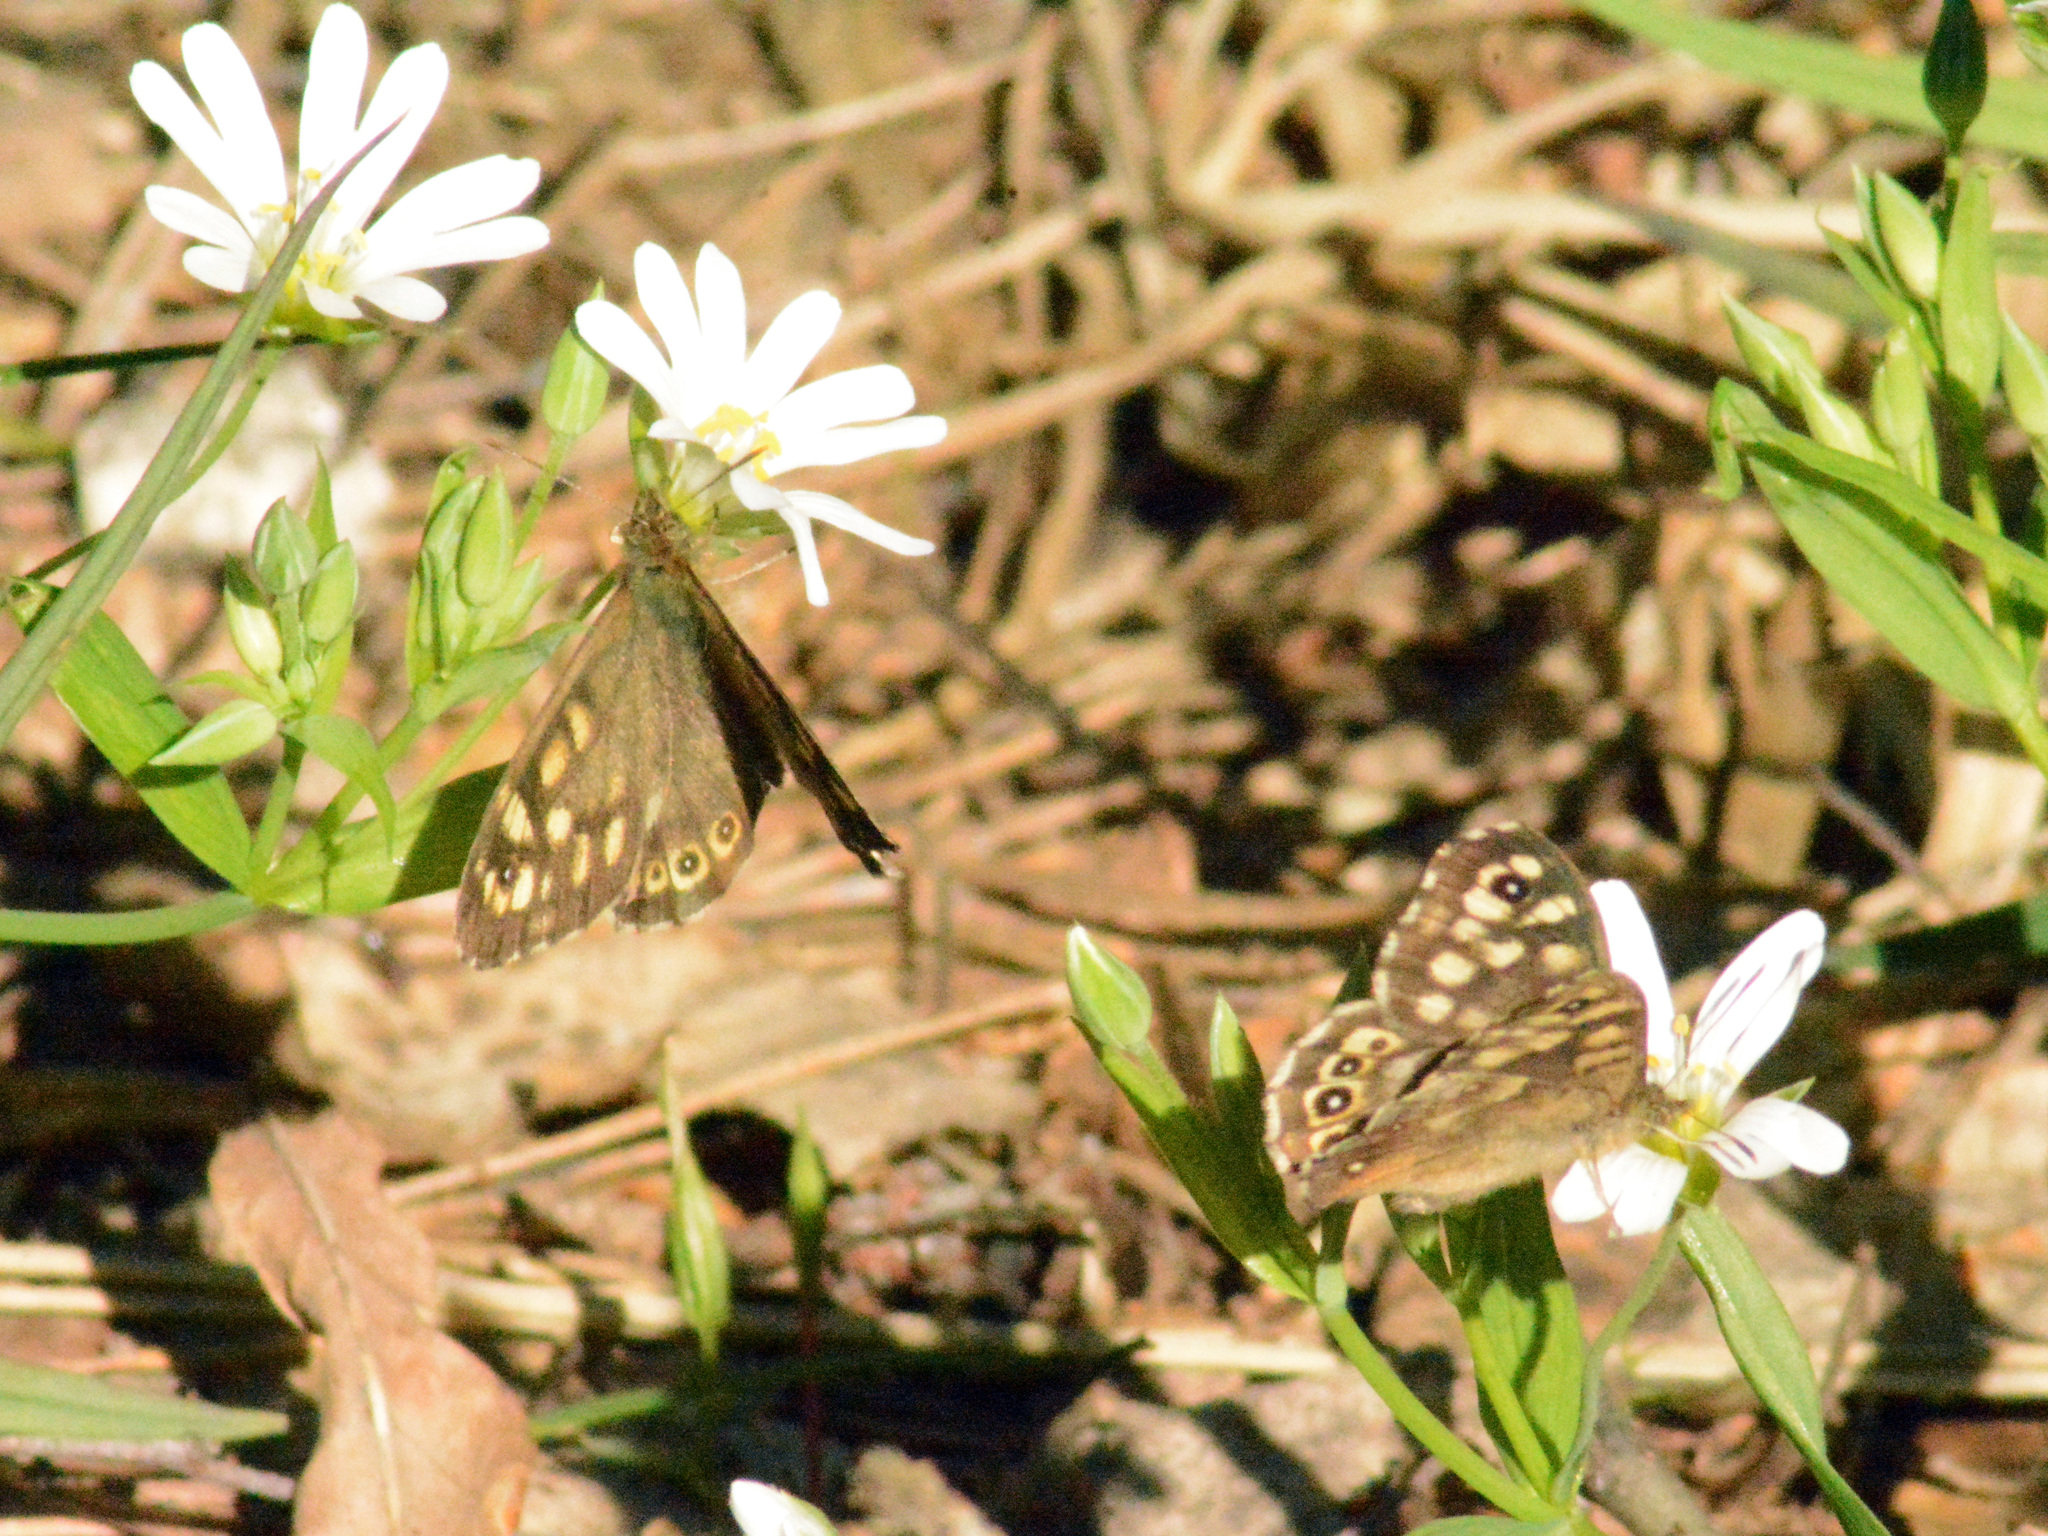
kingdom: Animalia
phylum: Arthropoda
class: Insecta
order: Lepidoptera
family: Nymphalidae
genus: Pararge
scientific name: Pararge aegeria
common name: Speckled wood
